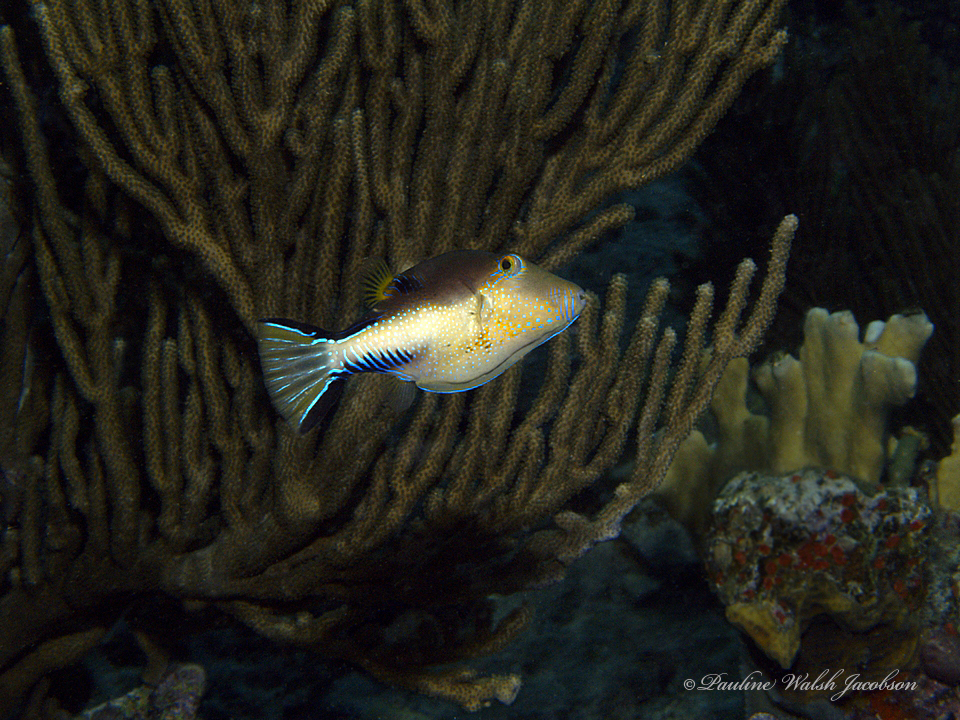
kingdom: Animalia
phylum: Chordata
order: Tetraodontiformes
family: Tetraodontidae
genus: Canthigaster
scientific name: Canthigaster rostrata
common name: Caribbean sharpnose-puffer
